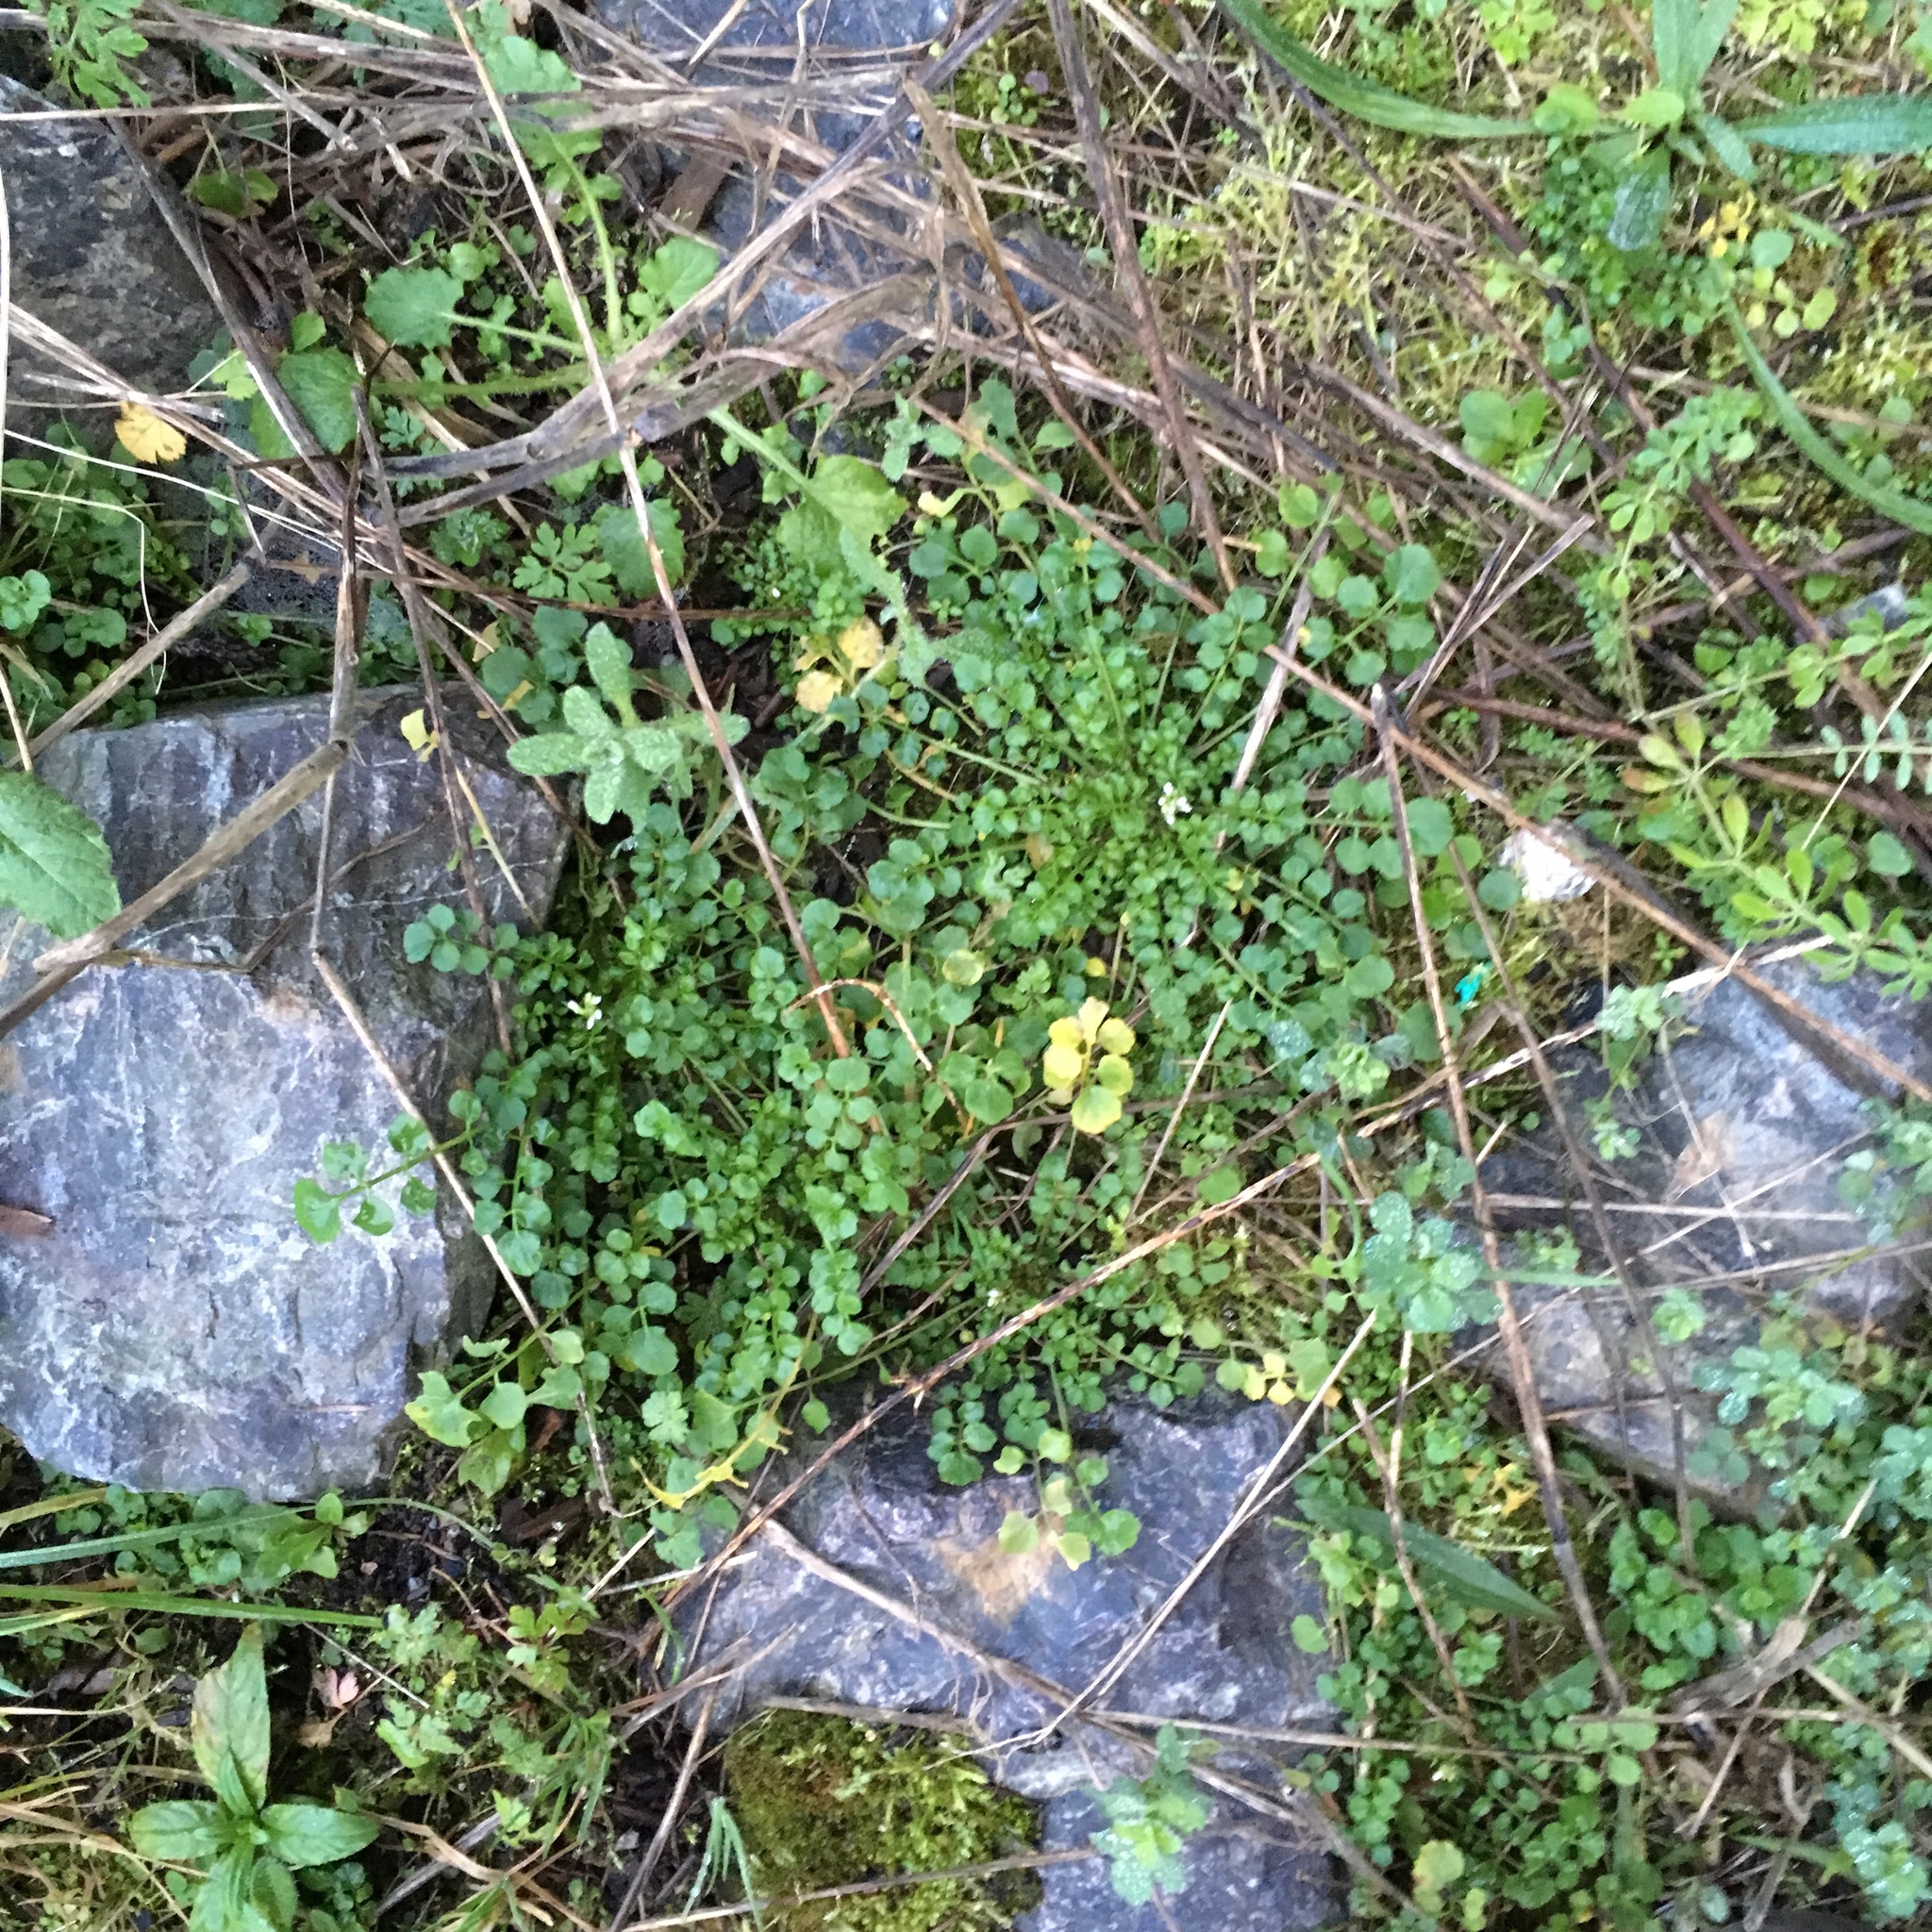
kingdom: Plantae
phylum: Tracheophyta
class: Magnoliopsida
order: Brassicales
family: Brassicaceae
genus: Cardamine
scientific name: Cardamine hirsuta
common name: Hairy bittercress
